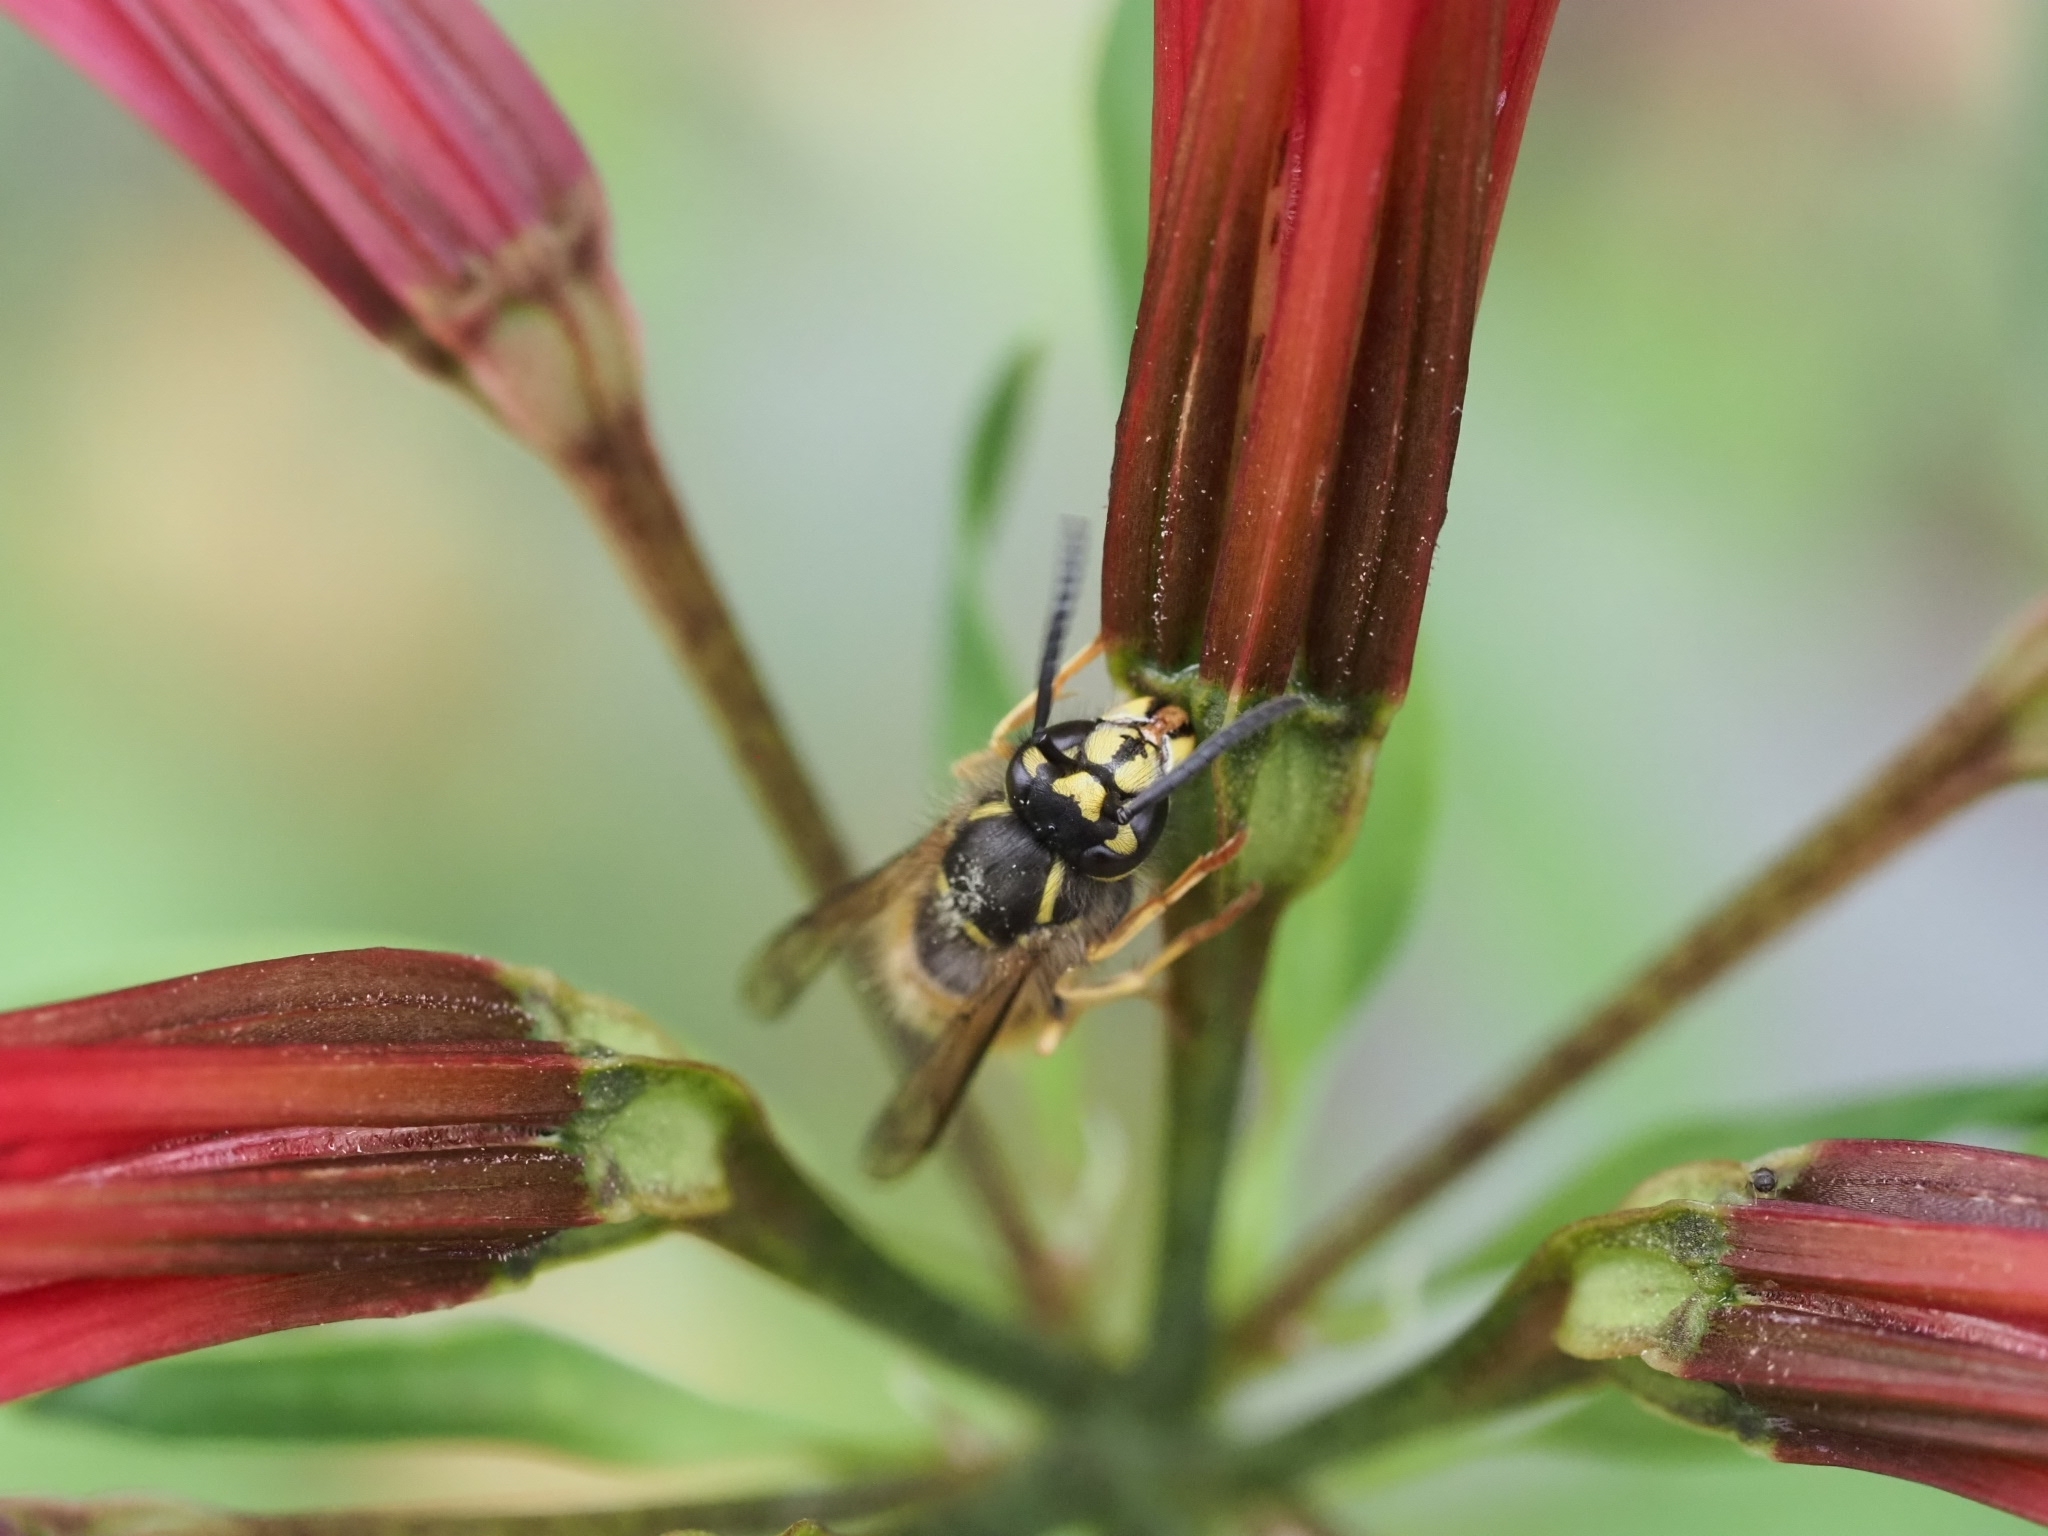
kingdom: Animalia
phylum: Arthropoda
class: Insecta
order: Hymenoptera
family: Vespidae
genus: Vespula
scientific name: Vespula vulgaris
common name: Common wasp
